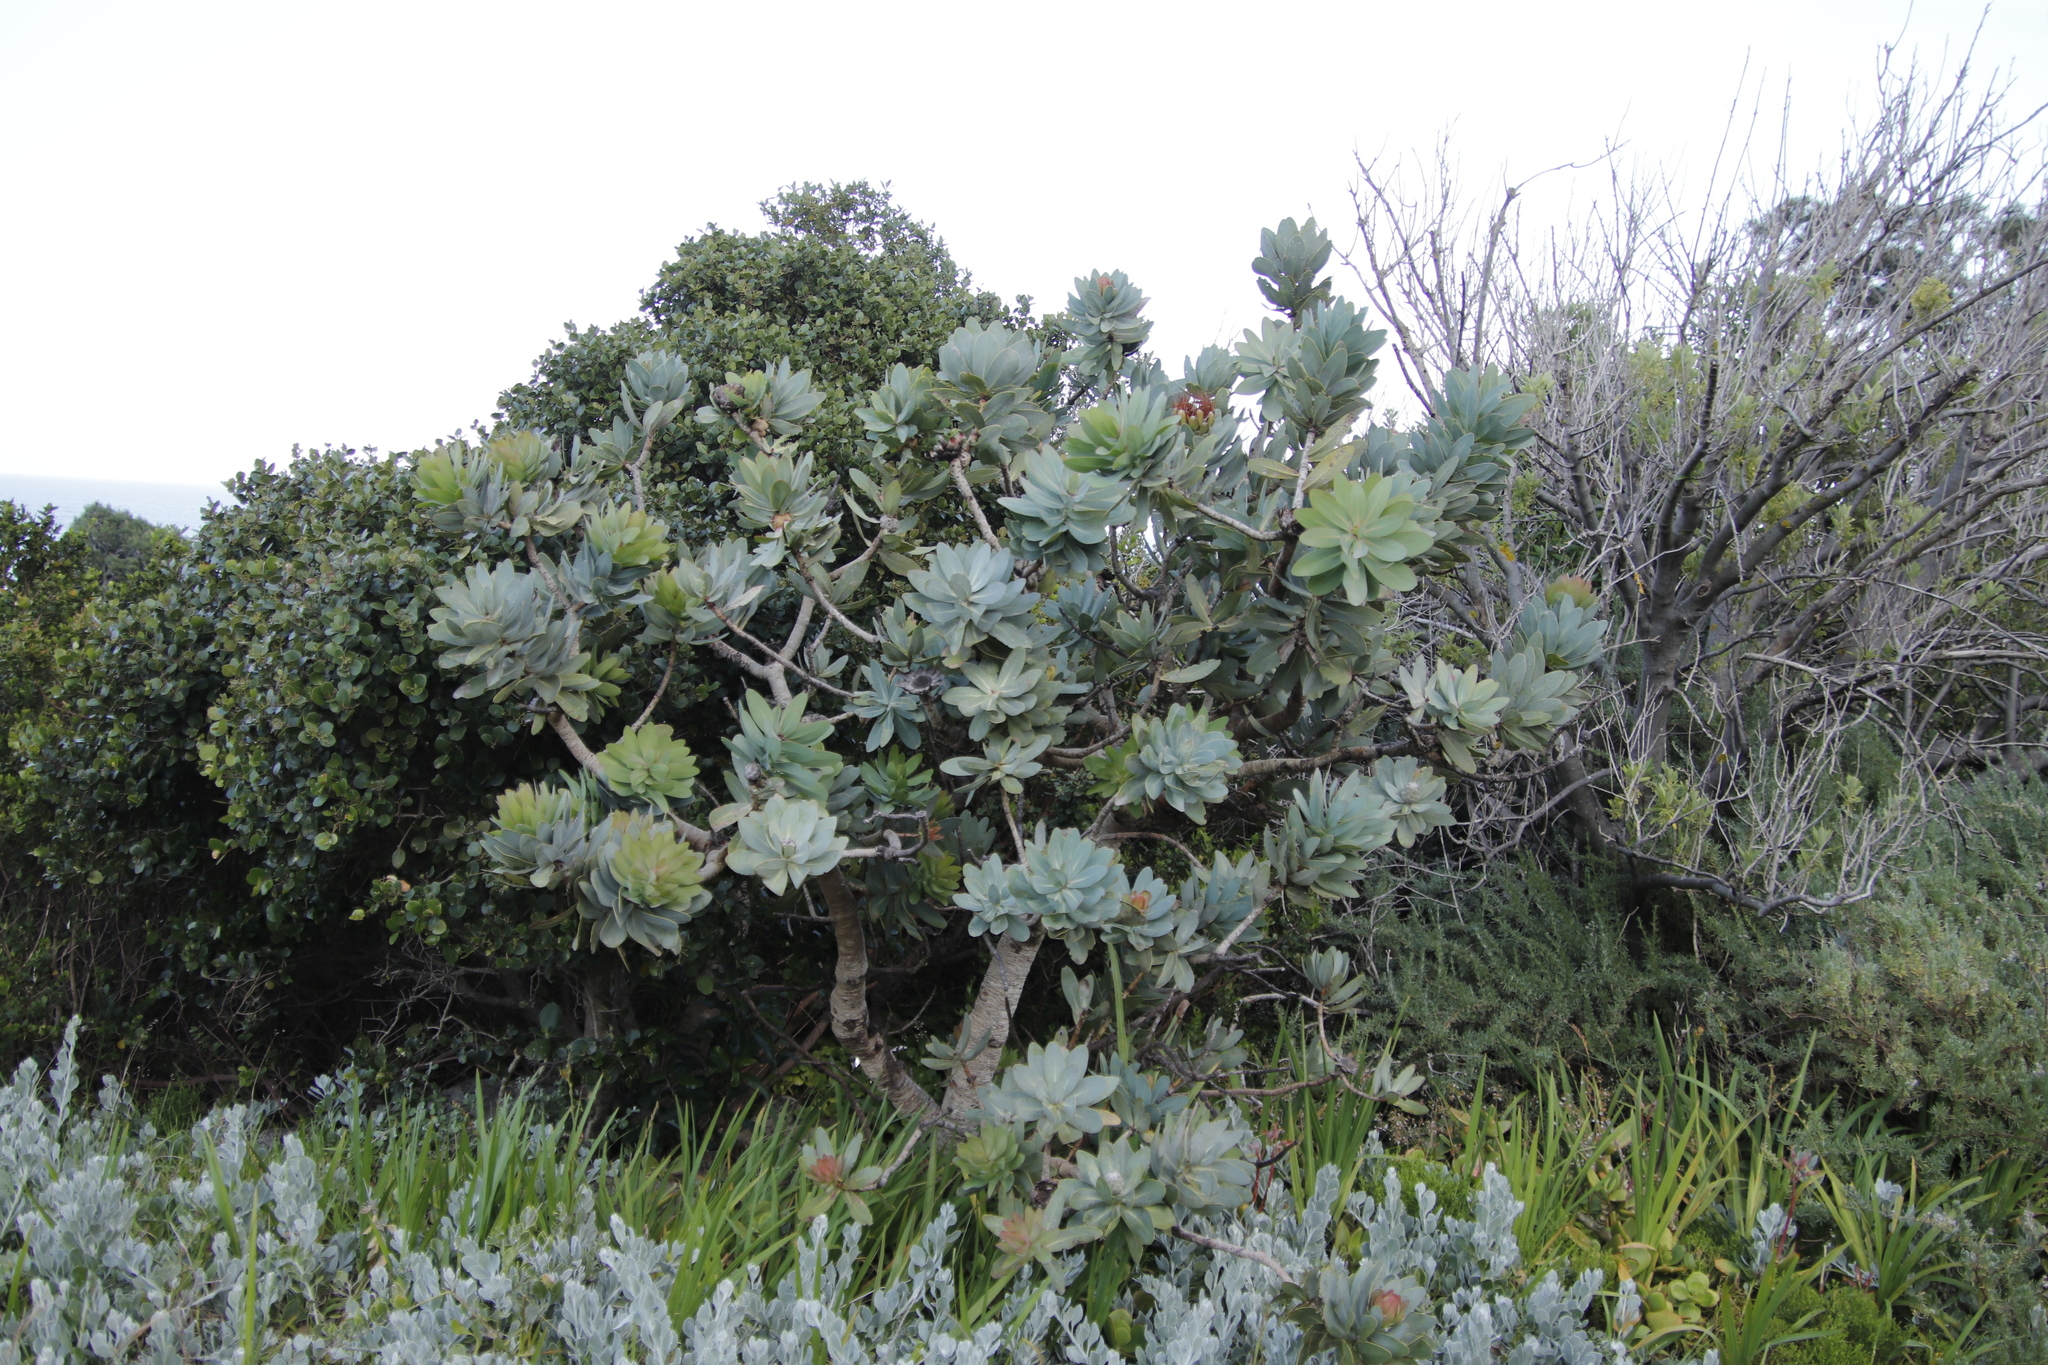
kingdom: Plantae
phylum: Tracheophyta
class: Magnoliopsida
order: Proteales
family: Proteaceae
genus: Protea
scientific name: Protea nitida
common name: Tree protea
